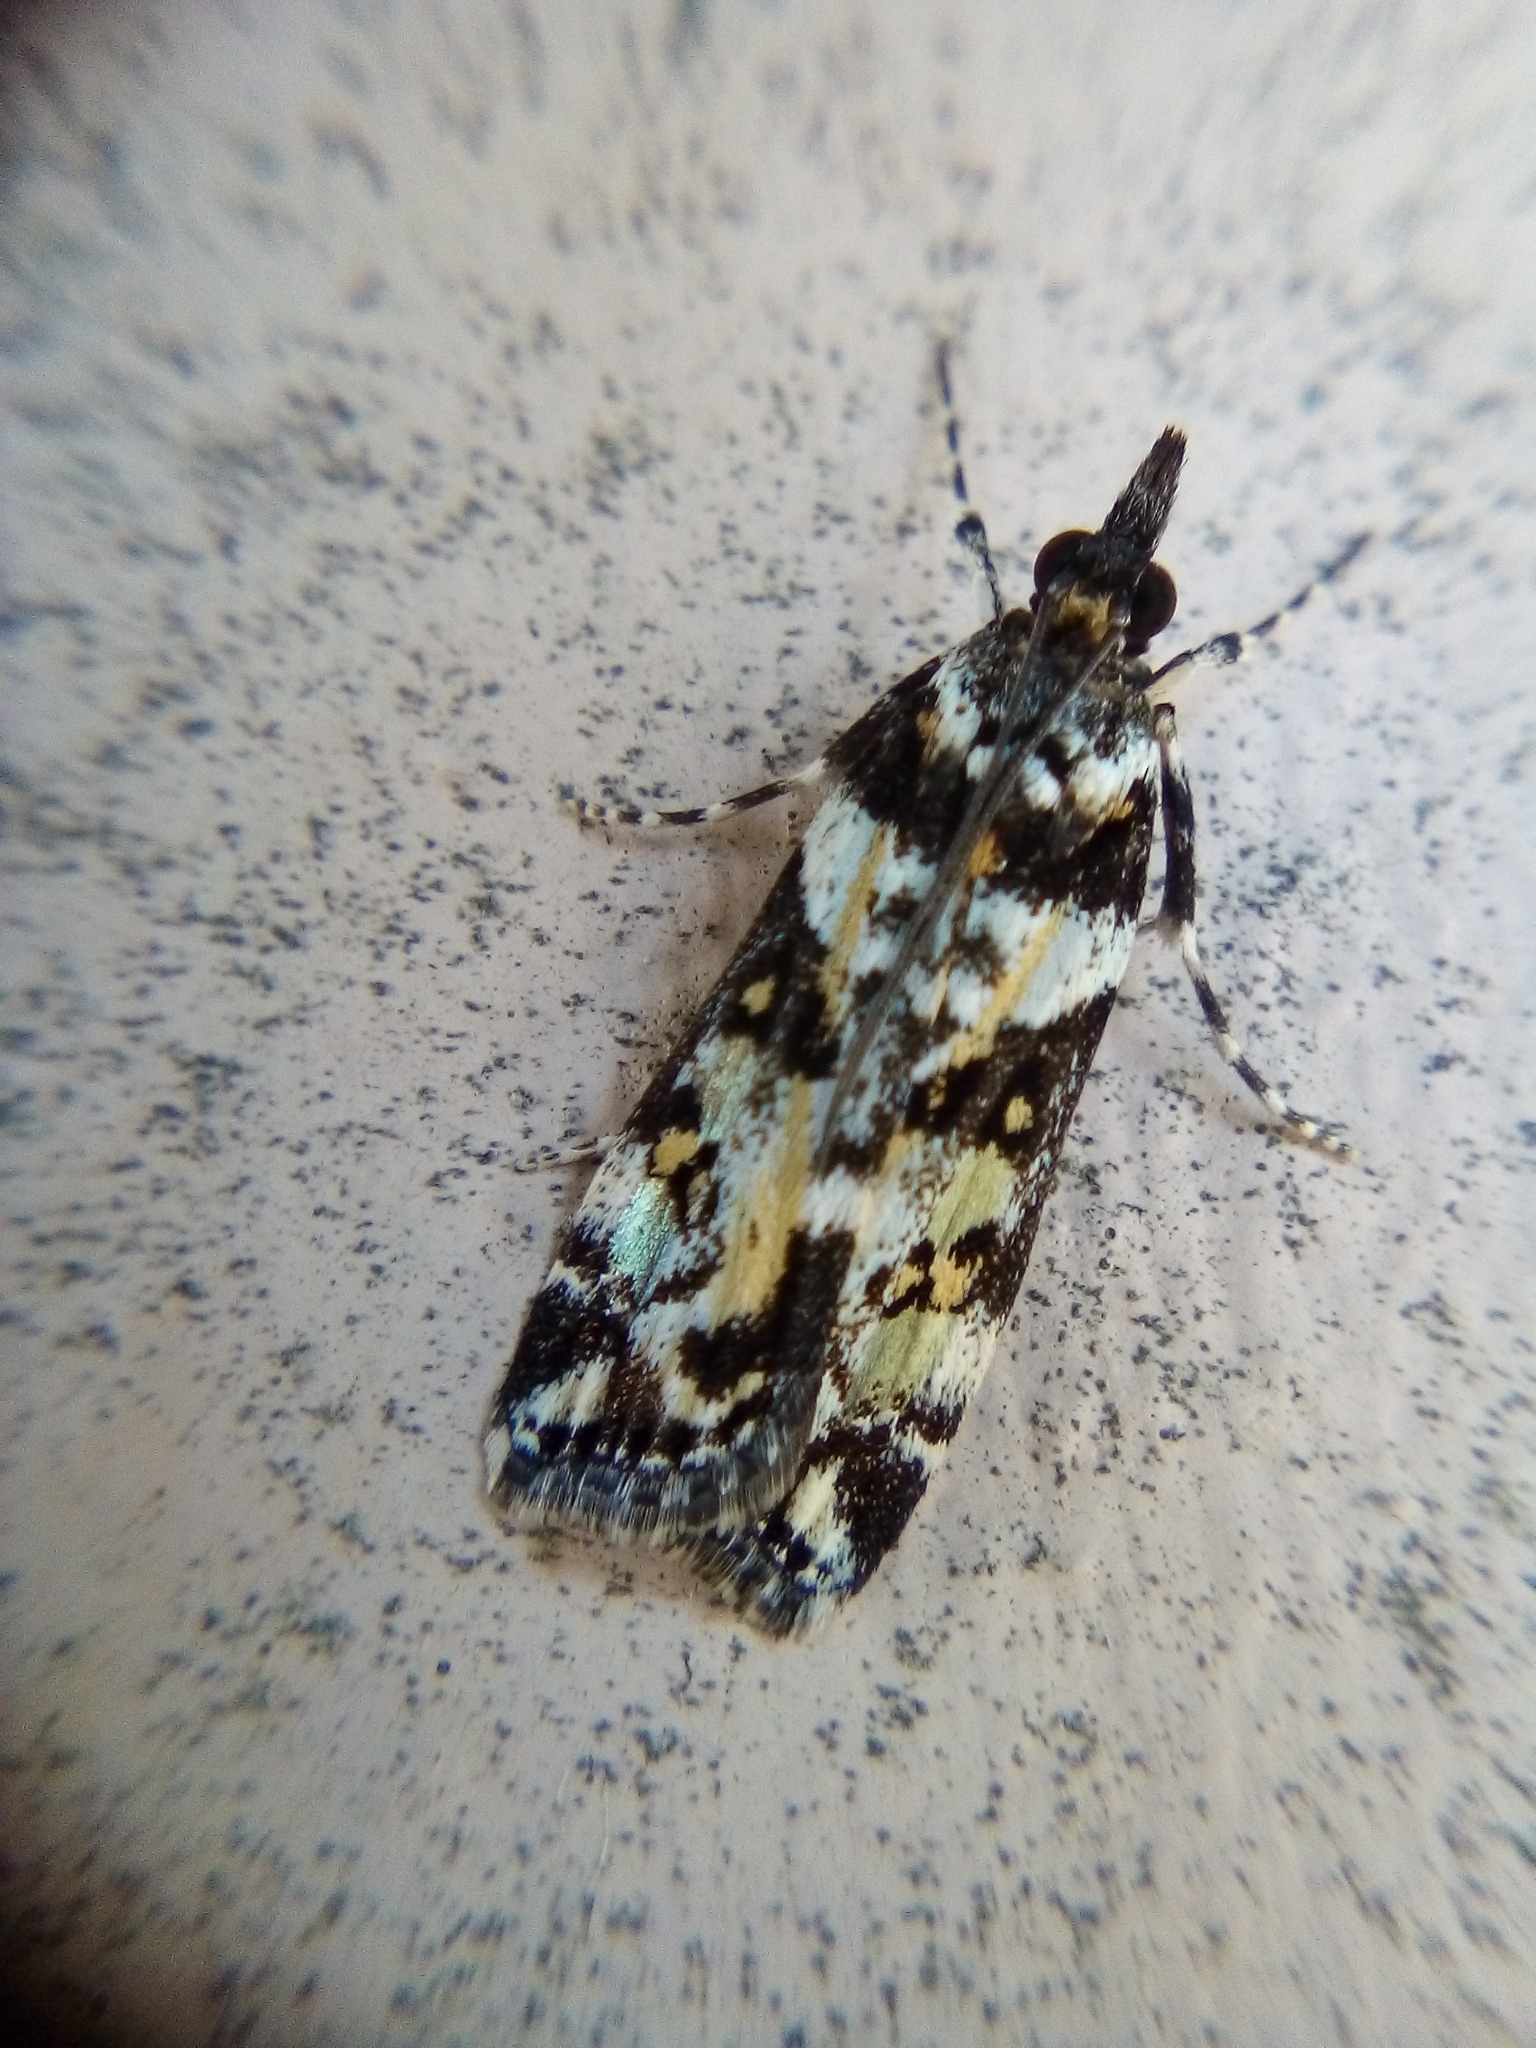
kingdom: Animalia
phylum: Arthropoda
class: Insecta
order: Lepidoptera
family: Crambidae
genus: Eudonia
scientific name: Eudonia diphtheralis
